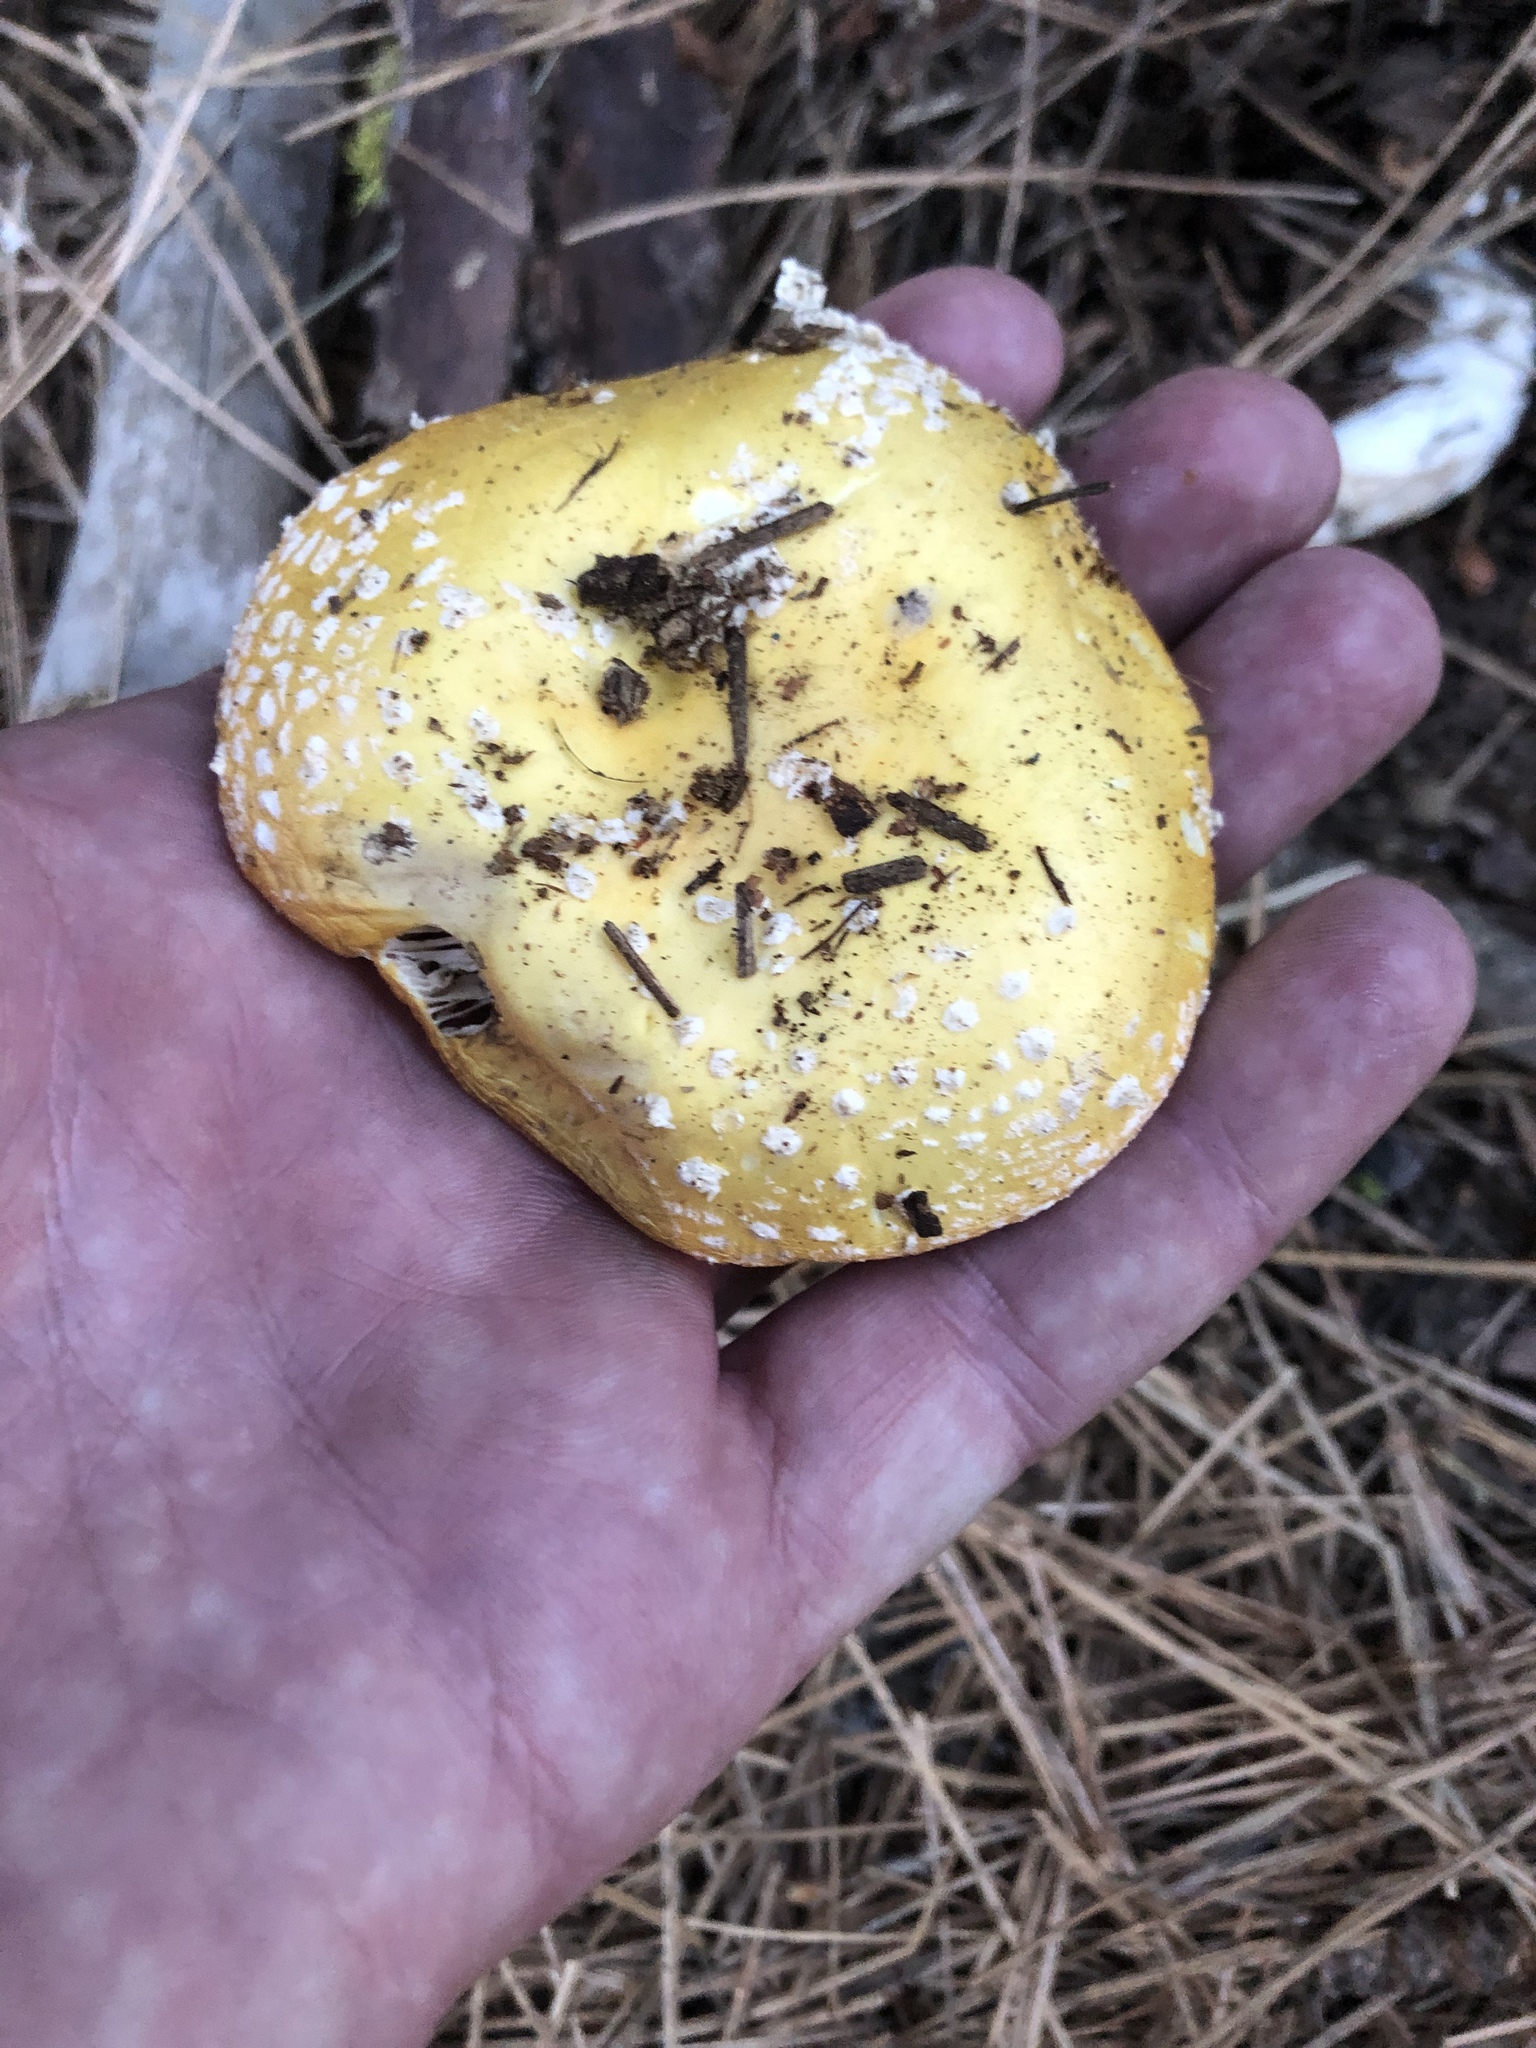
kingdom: Fungi
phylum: Basidiomycota
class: Agaricomycetes
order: Agaricales
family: Amanitaceae
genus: Amanita
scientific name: Amanita aprica
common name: Sunshine amanita
